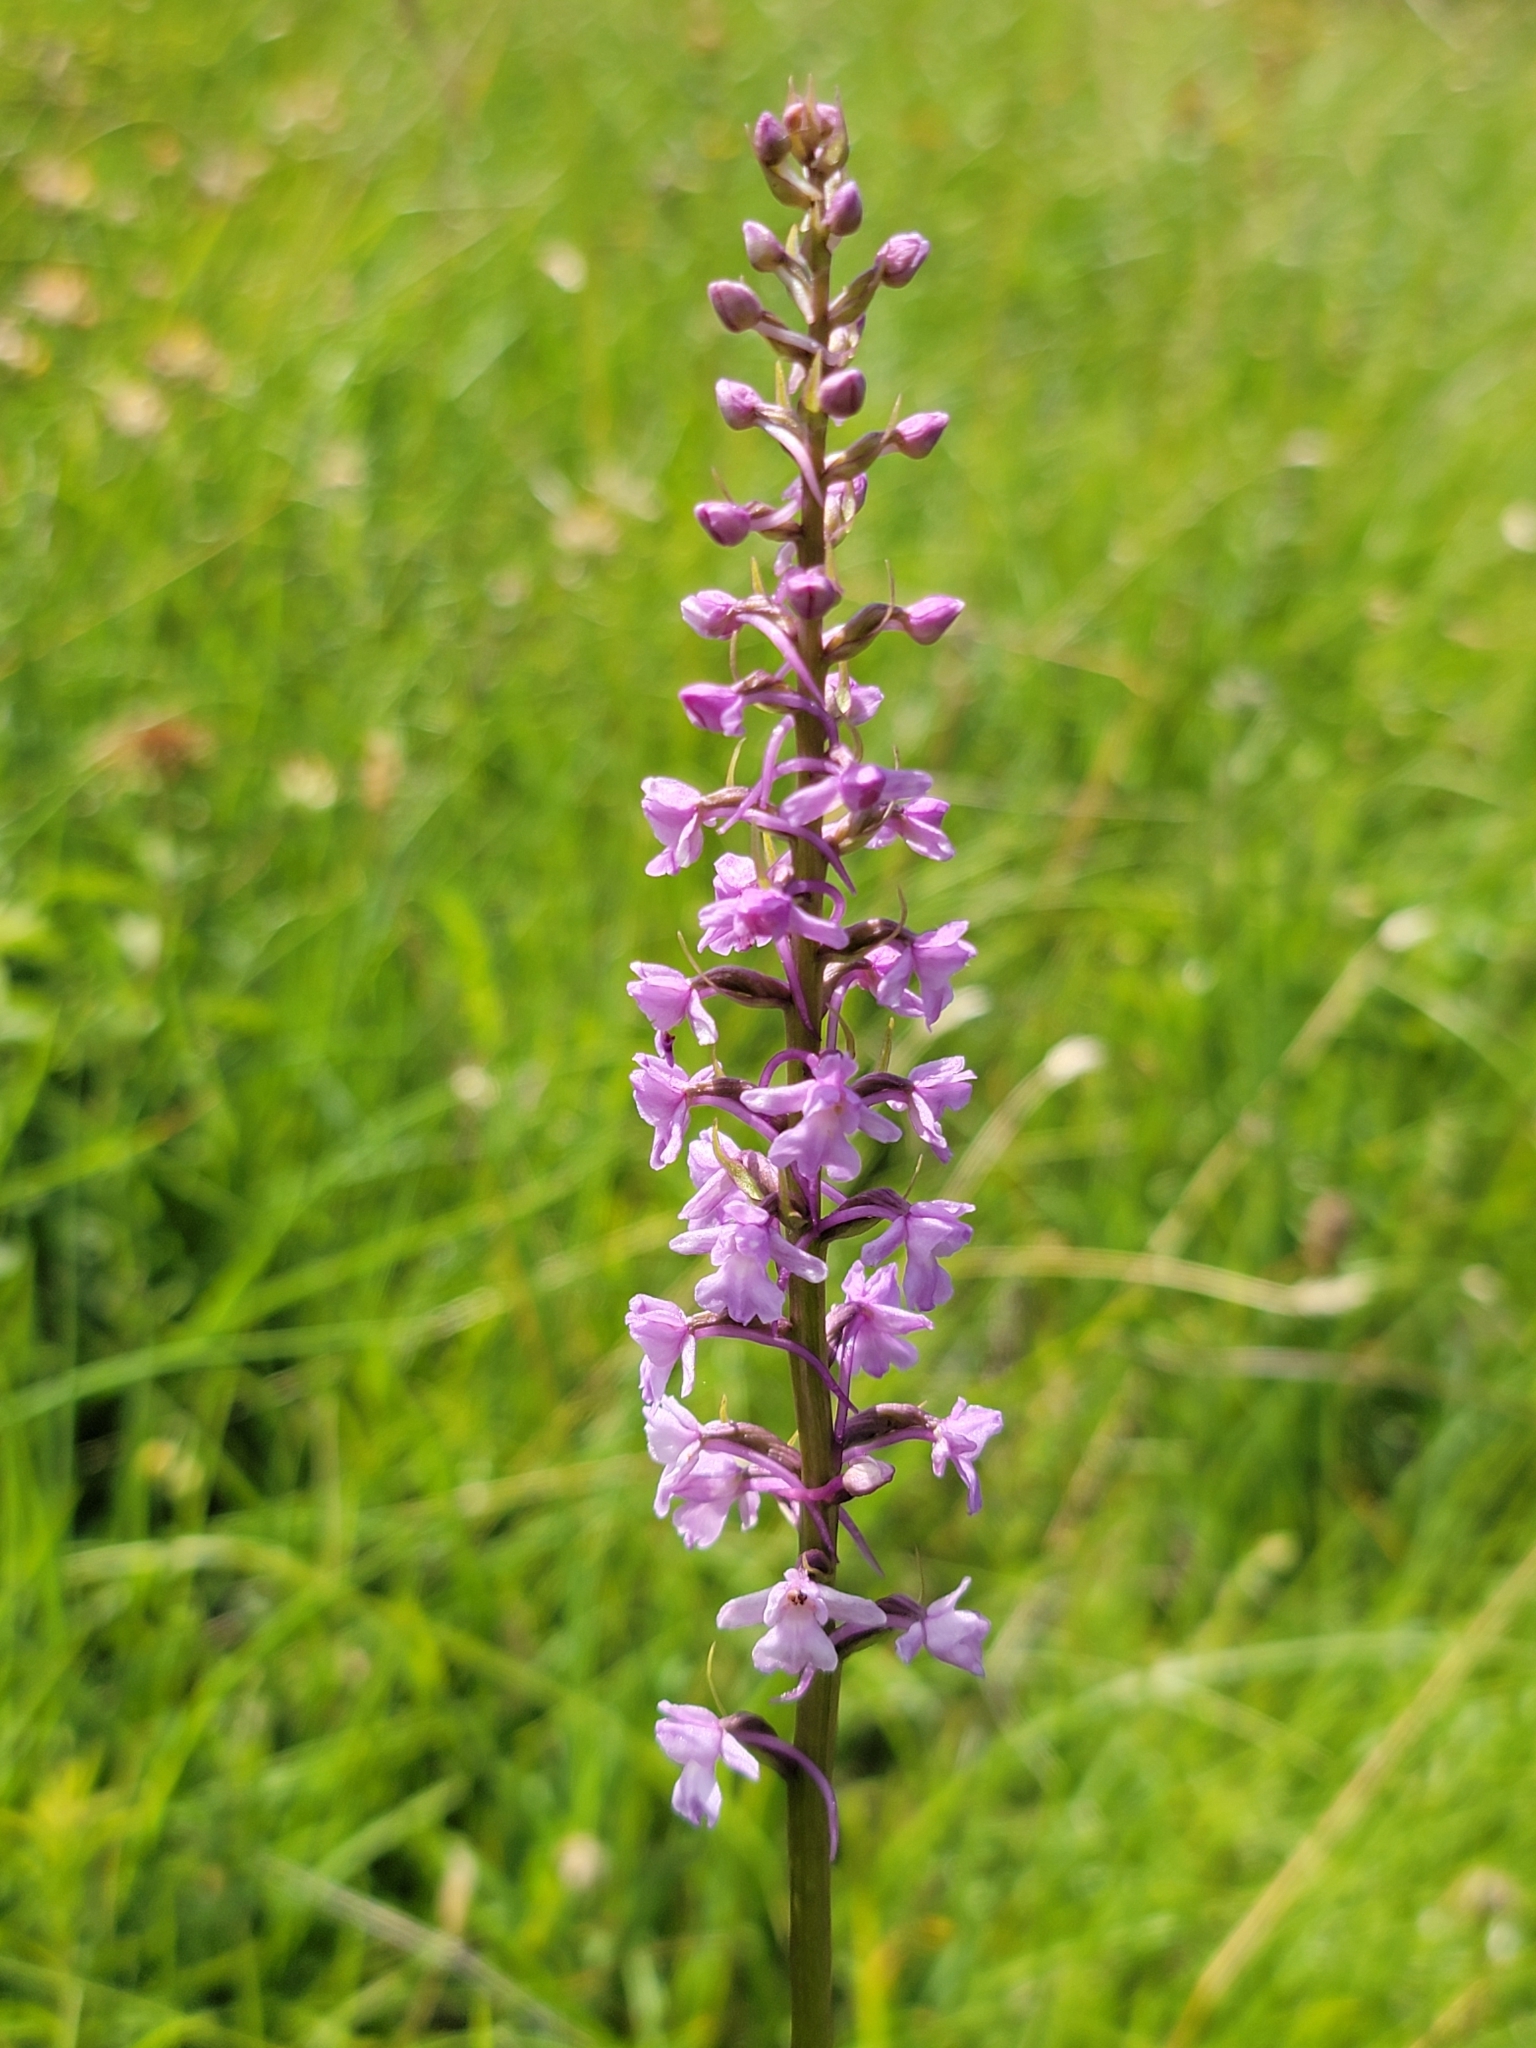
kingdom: Plantae
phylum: Tracheophyta
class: Liliopsida
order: Asparagales
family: Orchidaceae
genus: Gymnadenia
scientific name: Gymnadenia conopsea
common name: Fragrant orchid
